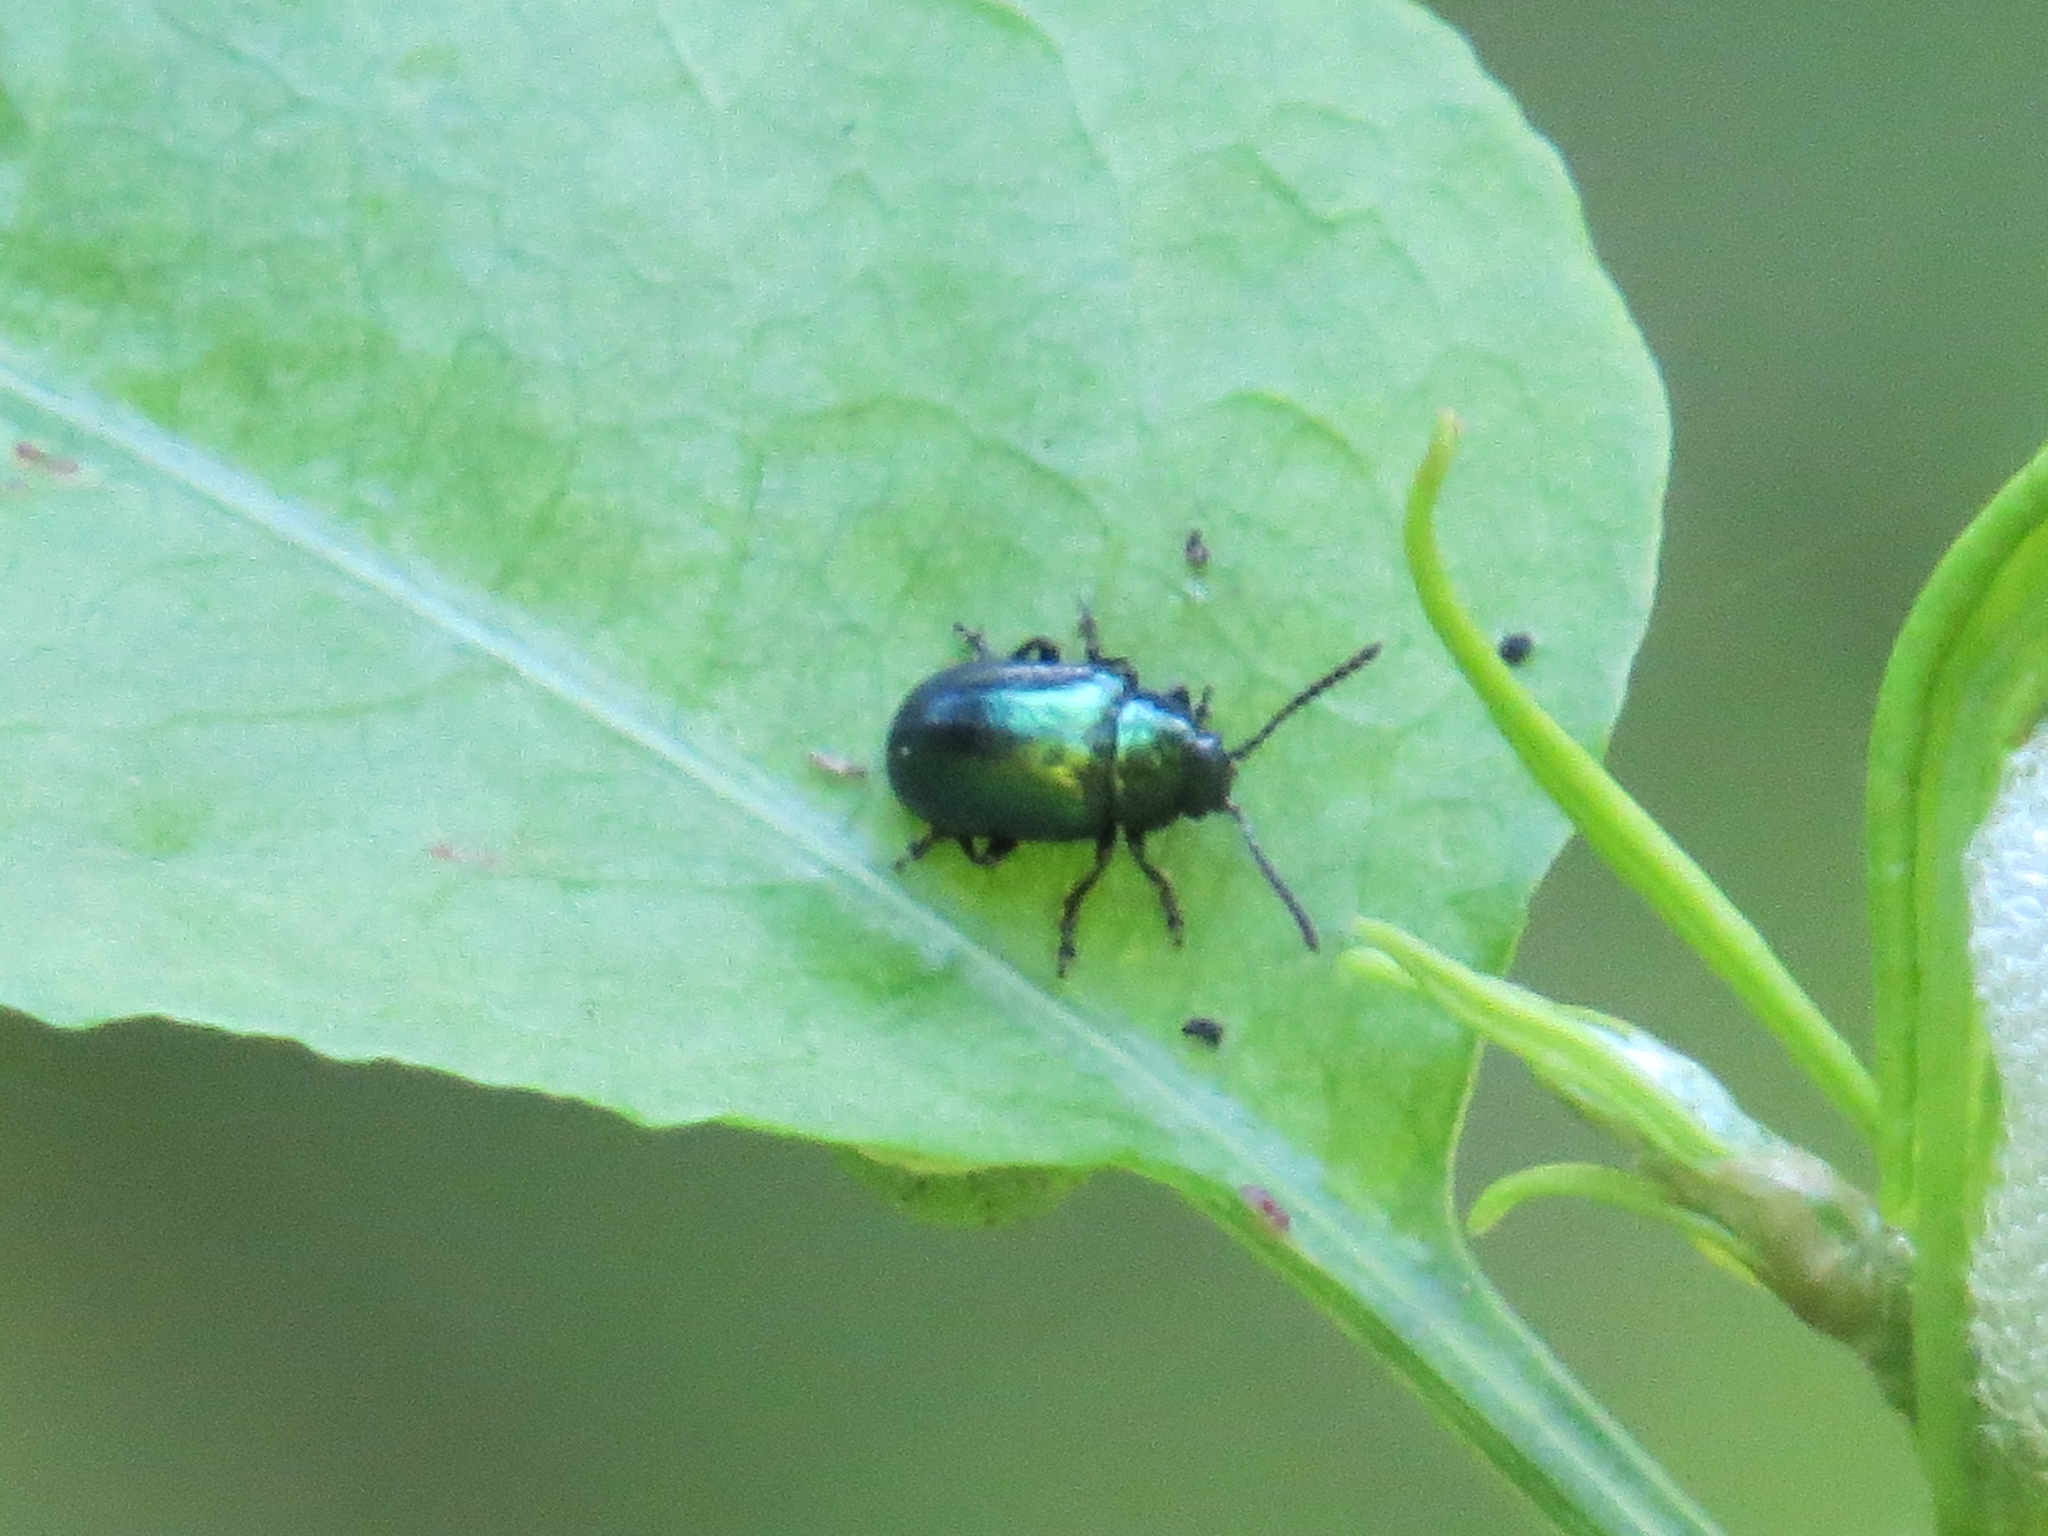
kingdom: Animalia
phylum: Arthropoda
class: Insecta
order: Coleoptera
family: Chrysomelidae
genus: Gastrophysa
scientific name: Gastrophysa cyanea
